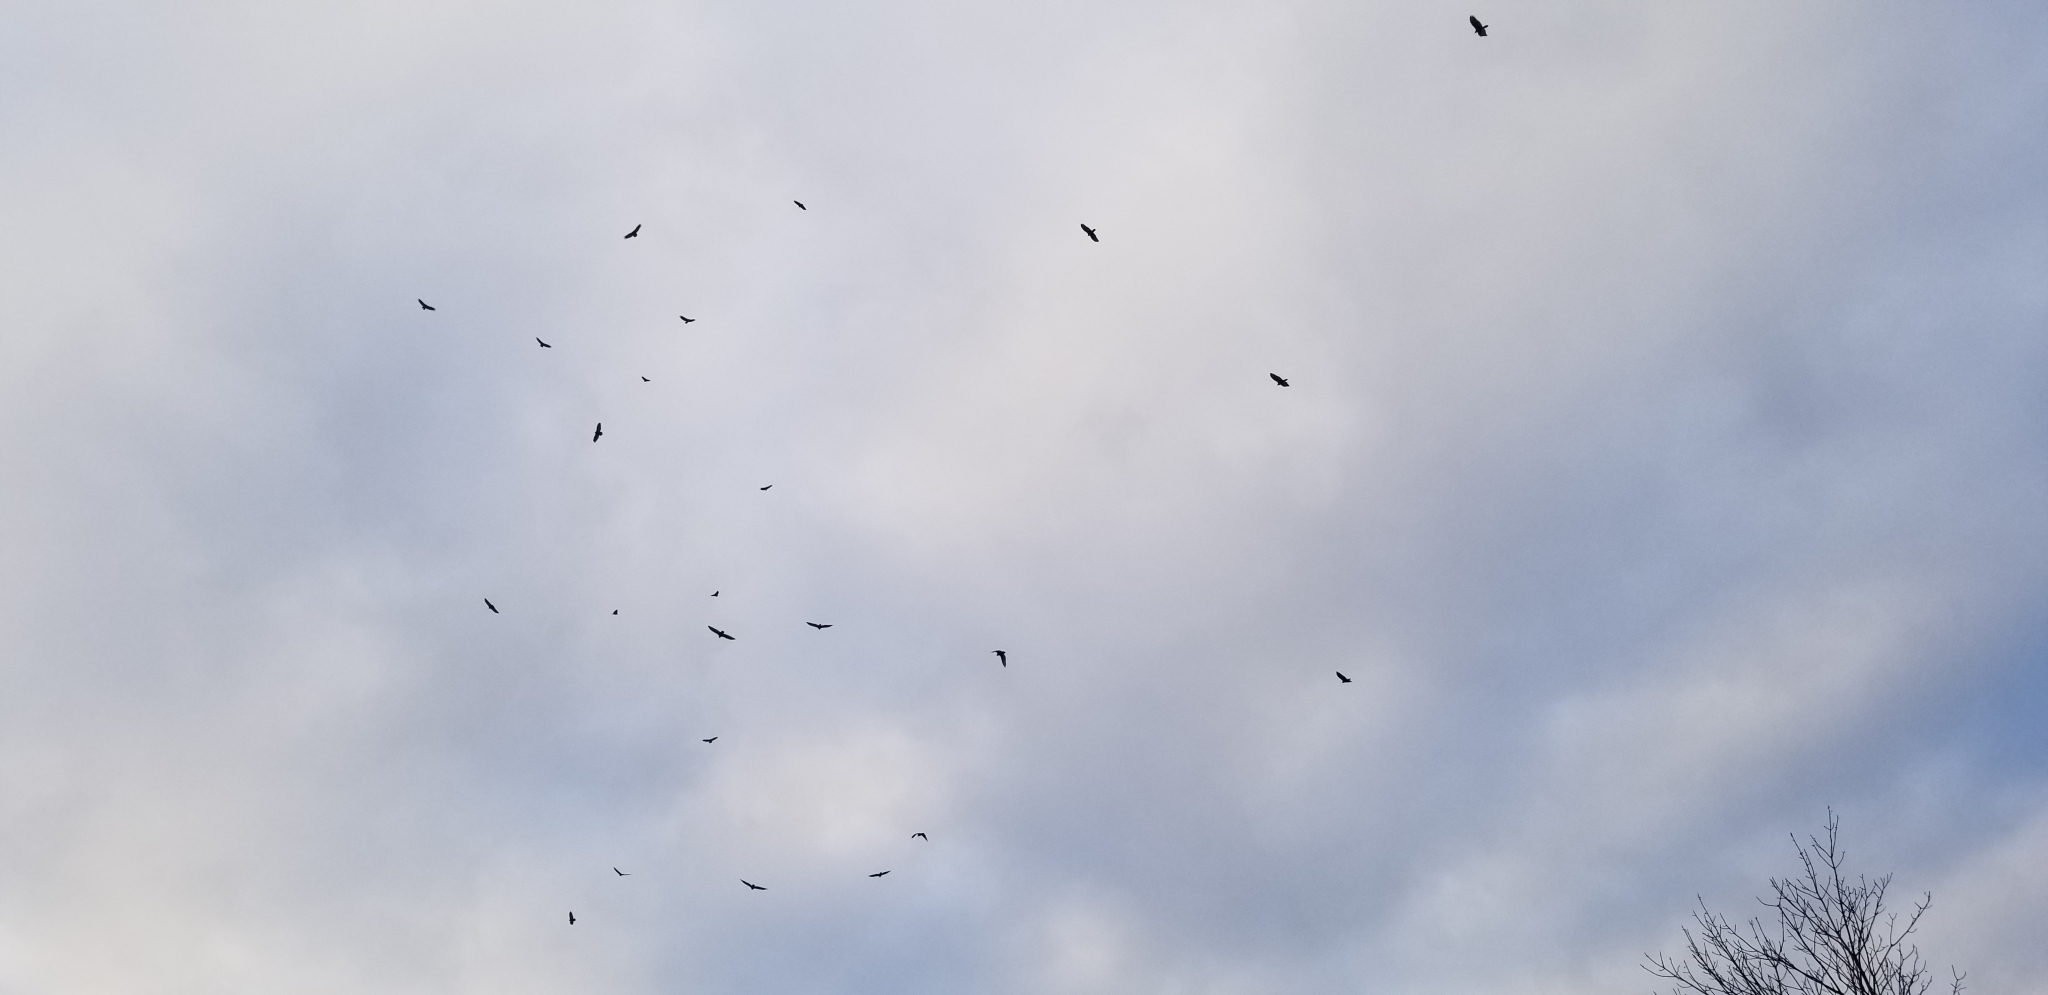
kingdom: Animalia
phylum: Chordata
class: Aves
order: Accipitriformes
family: Cathartidae
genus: Cathartes
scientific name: Cathartes aura
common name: Turkey vulture
